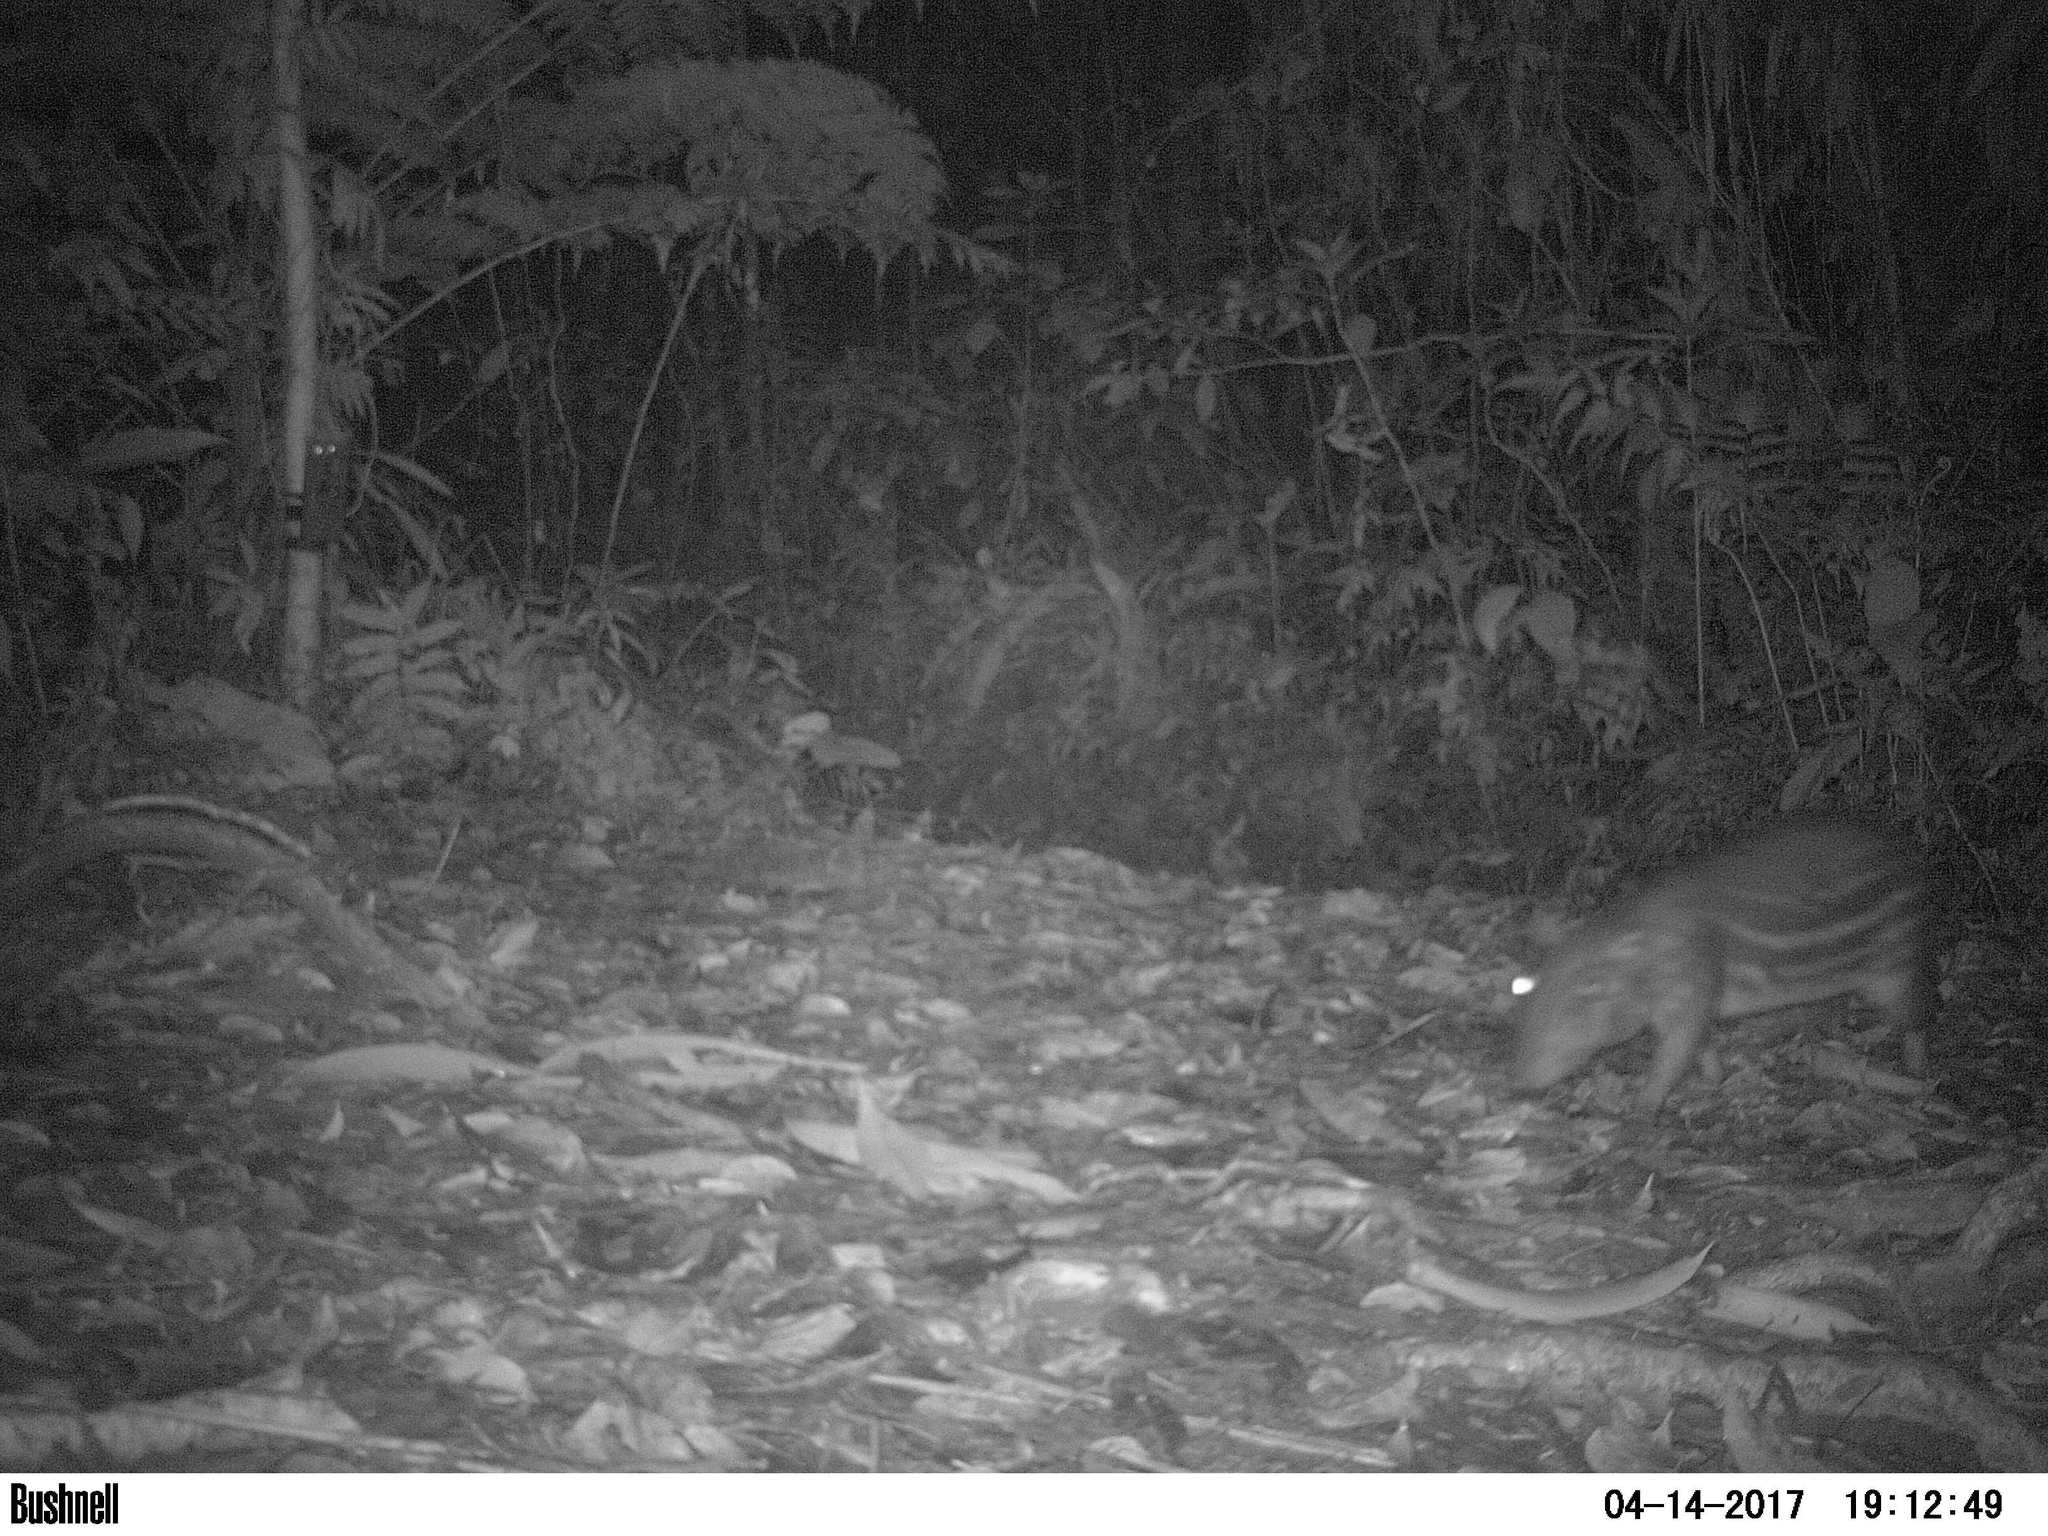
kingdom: Animalia
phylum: Chordata
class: Mammalia
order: Rodentia
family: Cuniculidae
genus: Cuniculus
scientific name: Cuniculus paca
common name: Lowland paca
